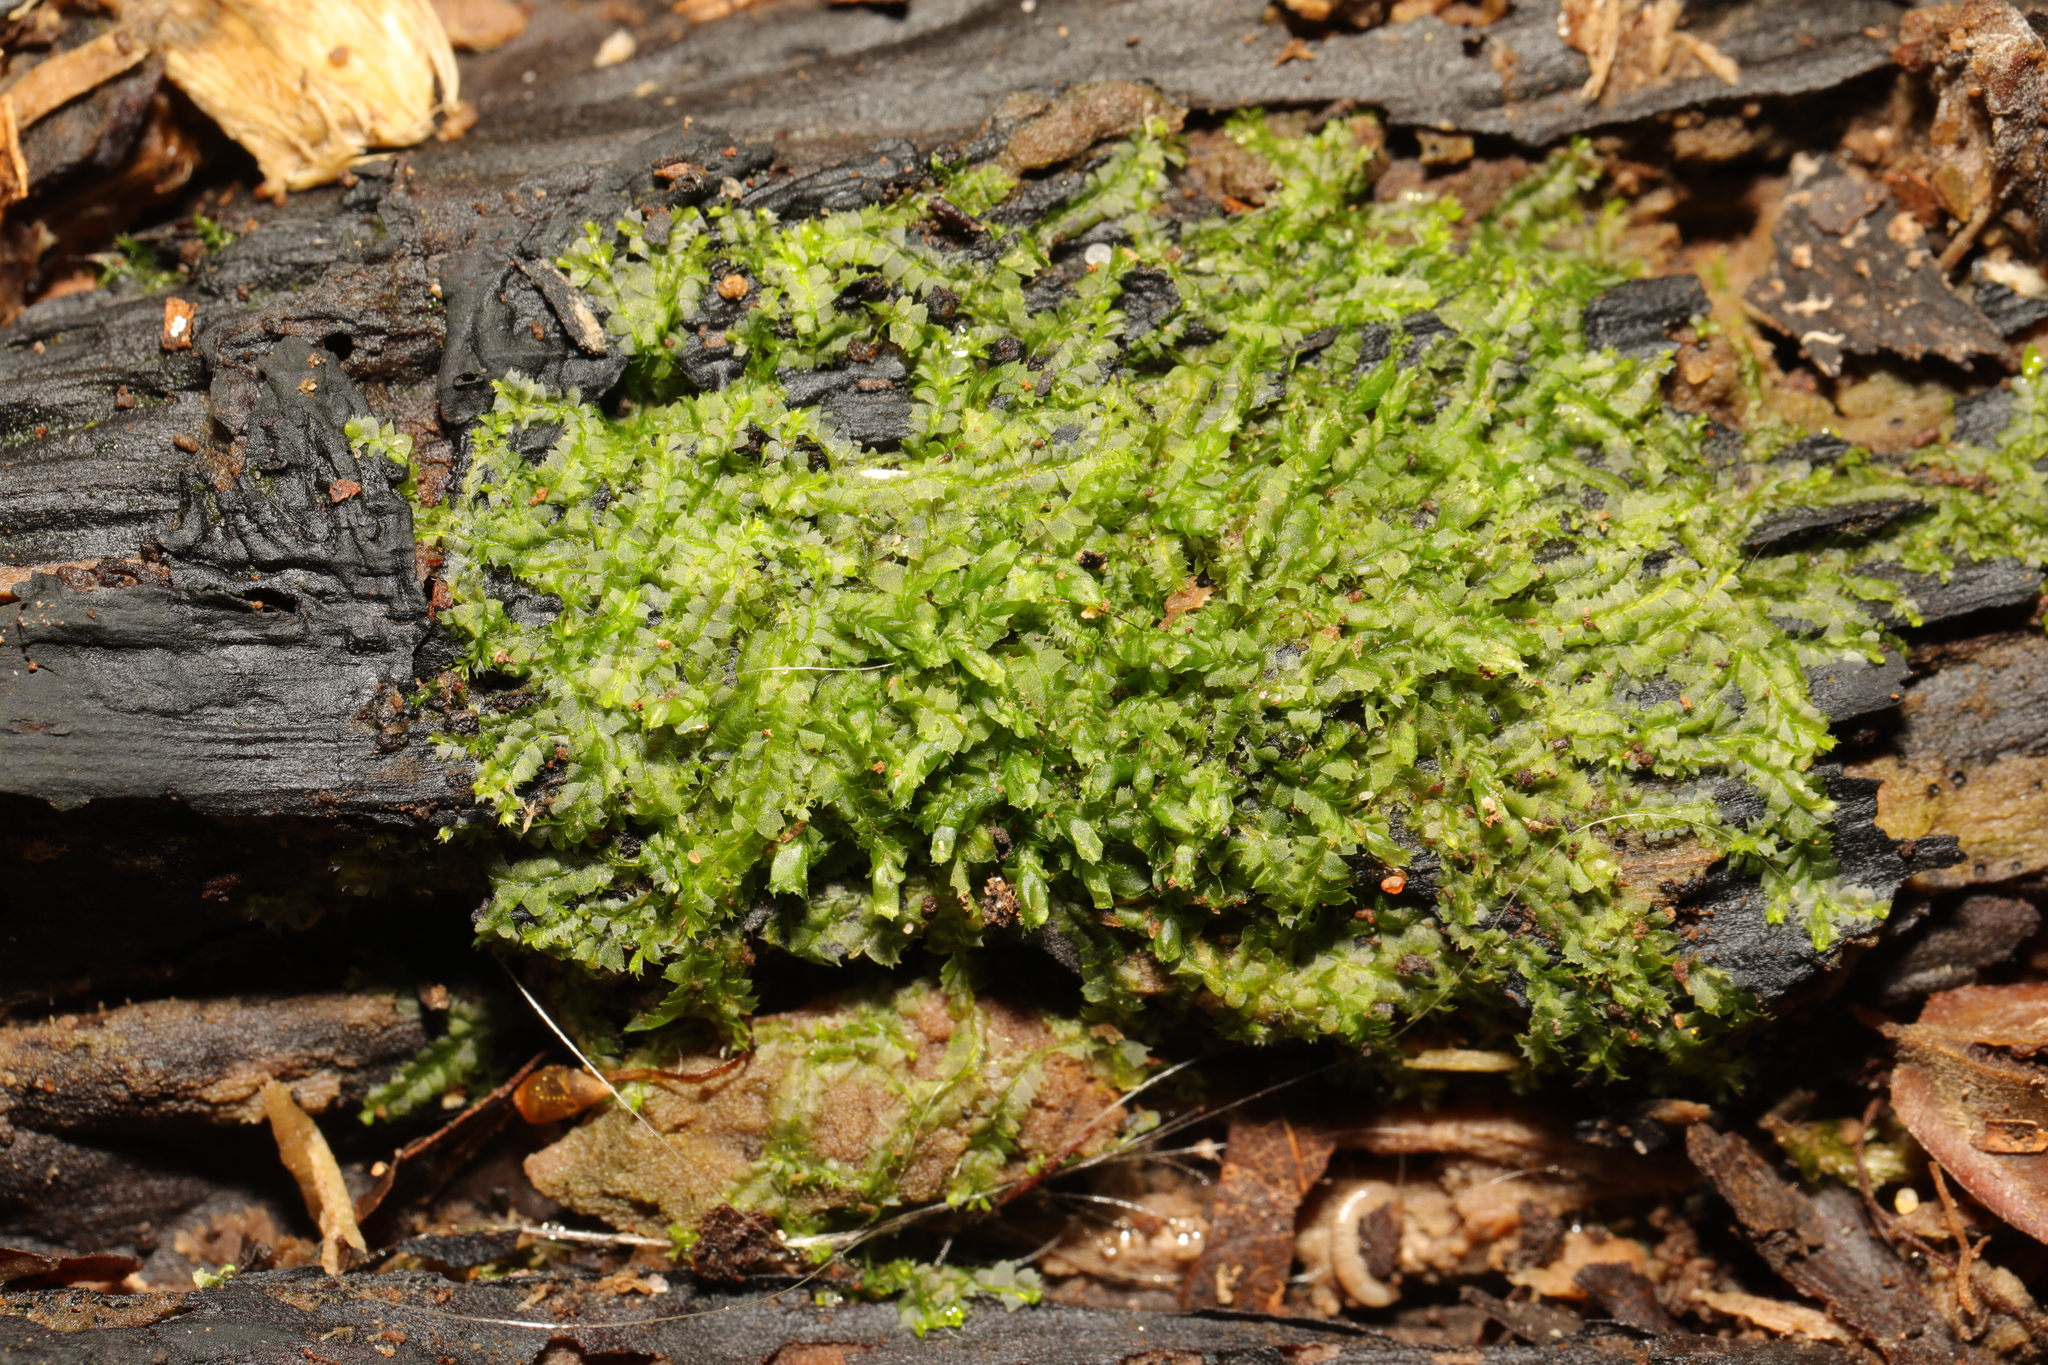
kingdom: Plantae
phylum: Marchantiophyta
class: Jungermanniopsida
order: Jungermanniales
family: Lophocoleaceae
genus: Lophocolea
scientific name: Lophocolea heterophylla
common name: Variable-leaved crestwort
